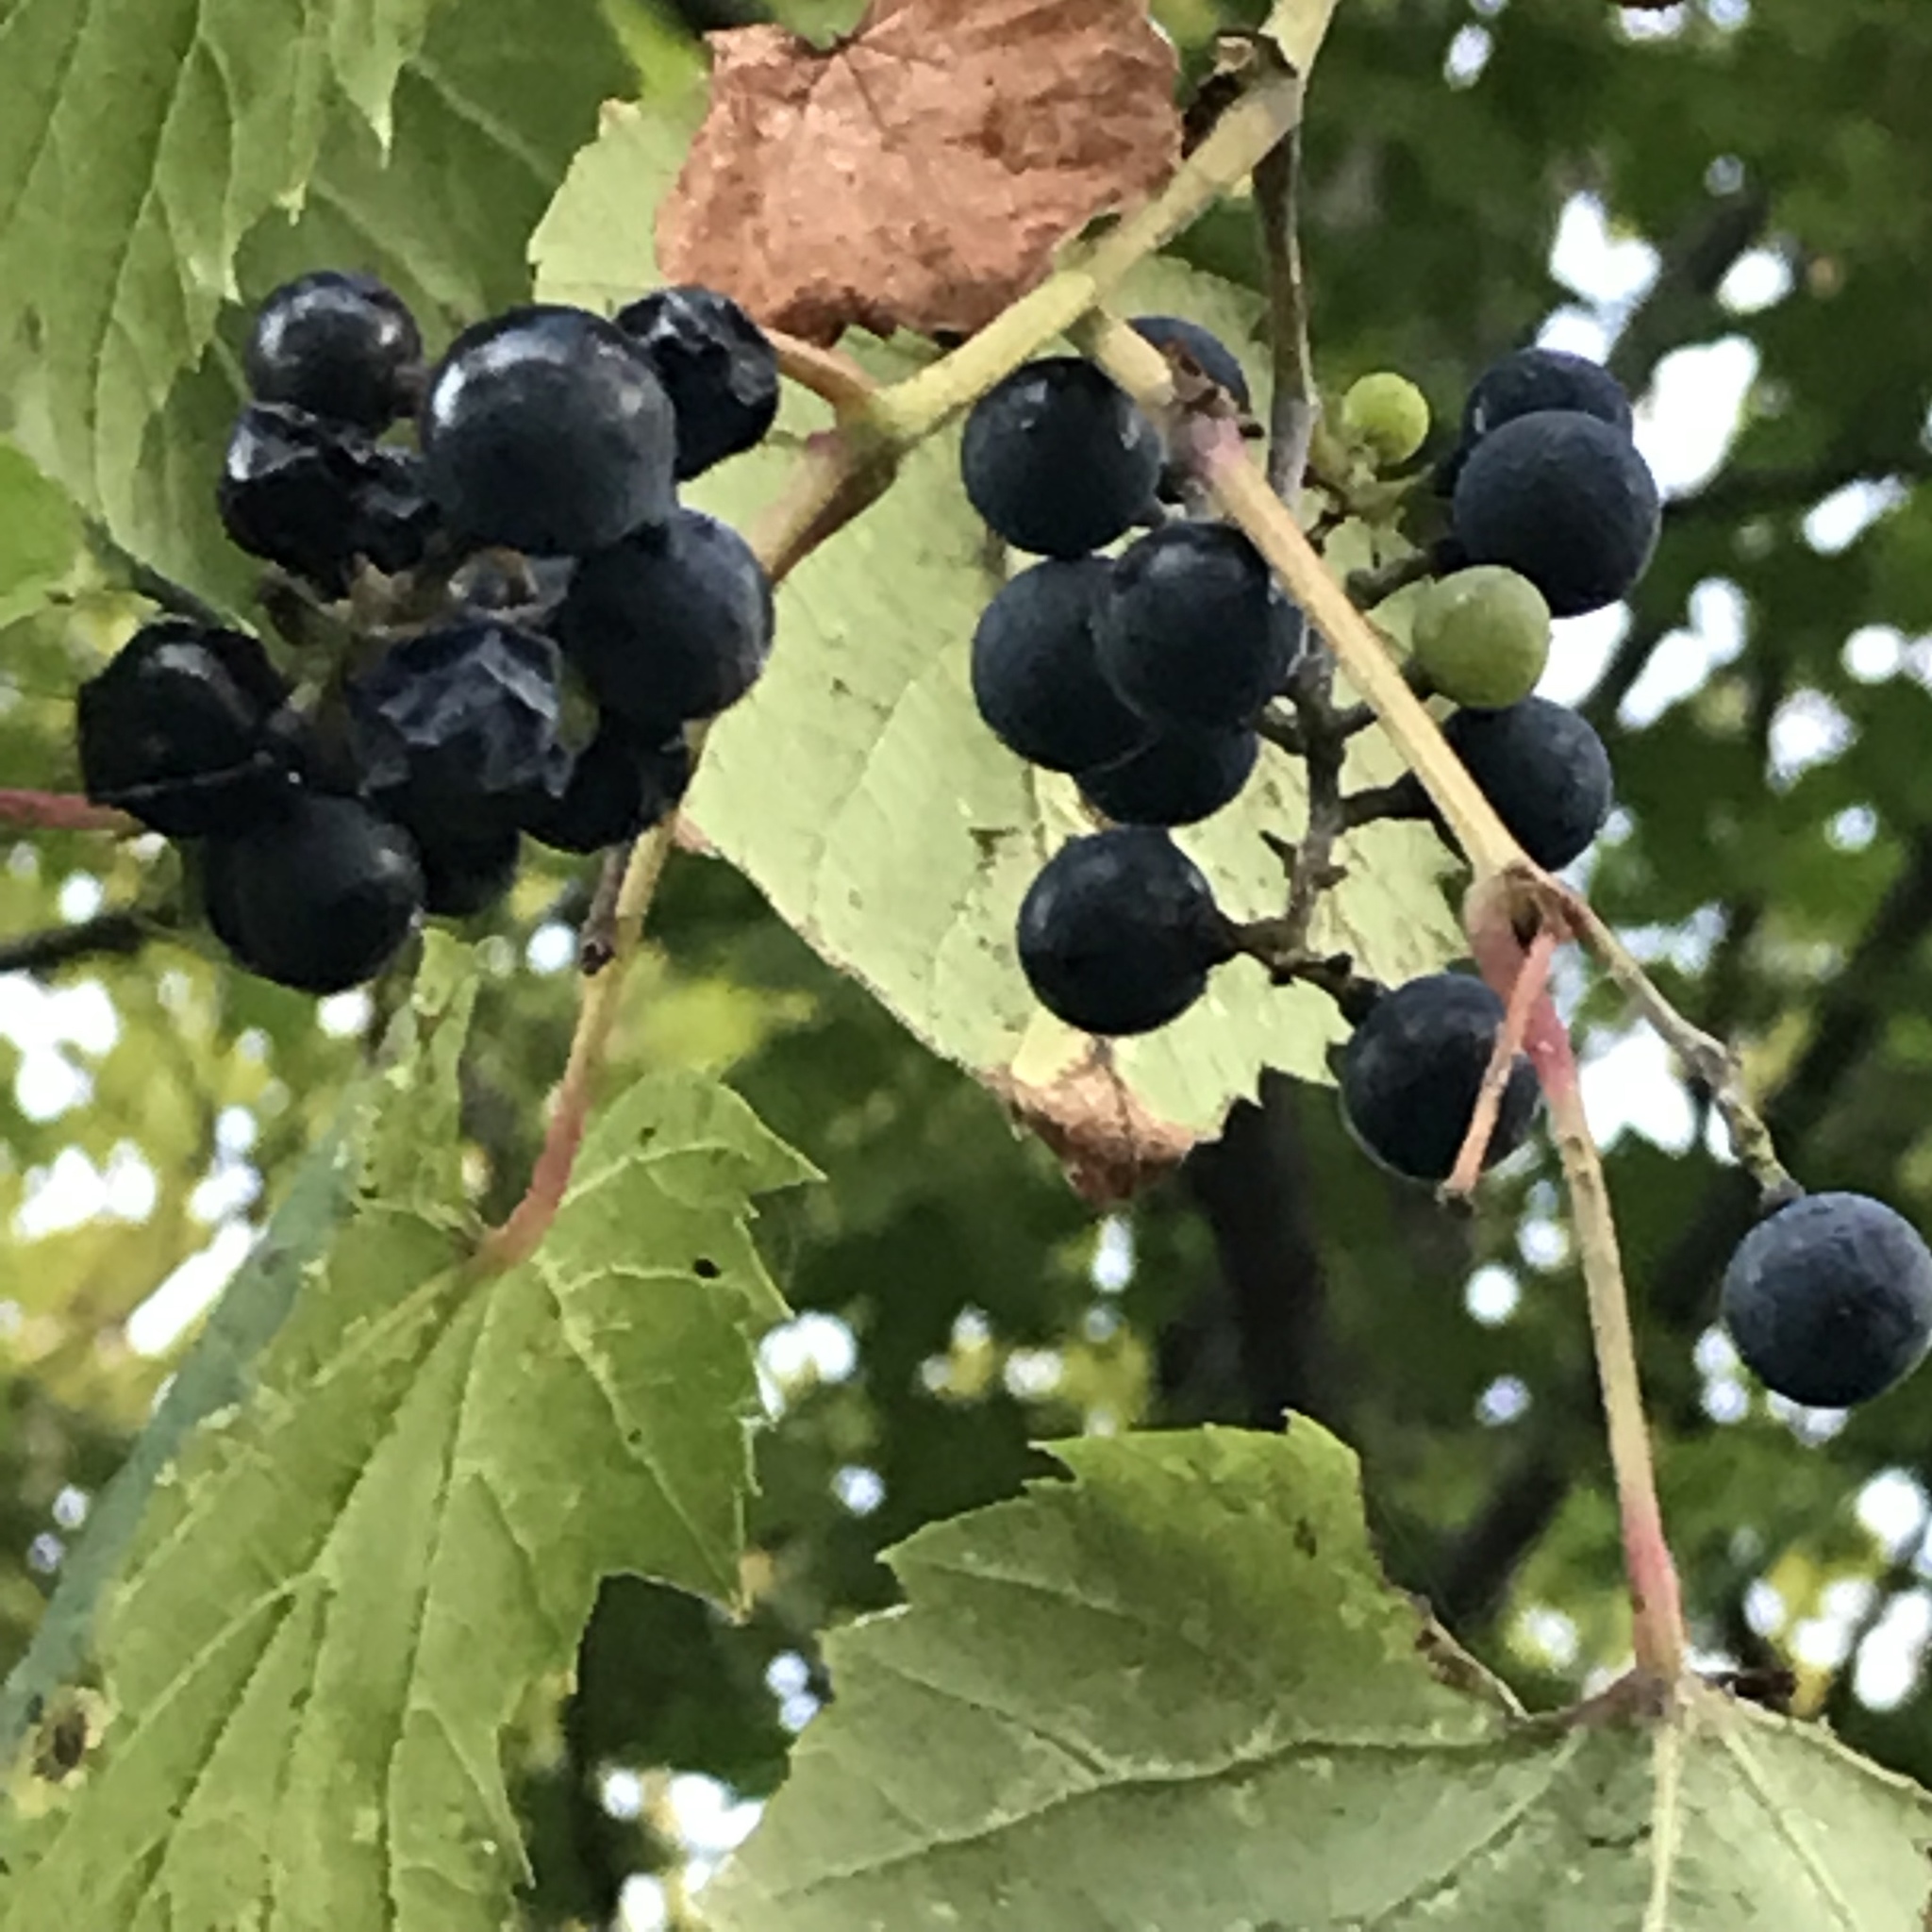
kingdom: Plantae
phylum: Tracheophyta
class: Magnoliopsida
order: Vitales
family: Vitaceae
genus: Vitis
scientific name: Vitis riparia
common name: Frost grape
